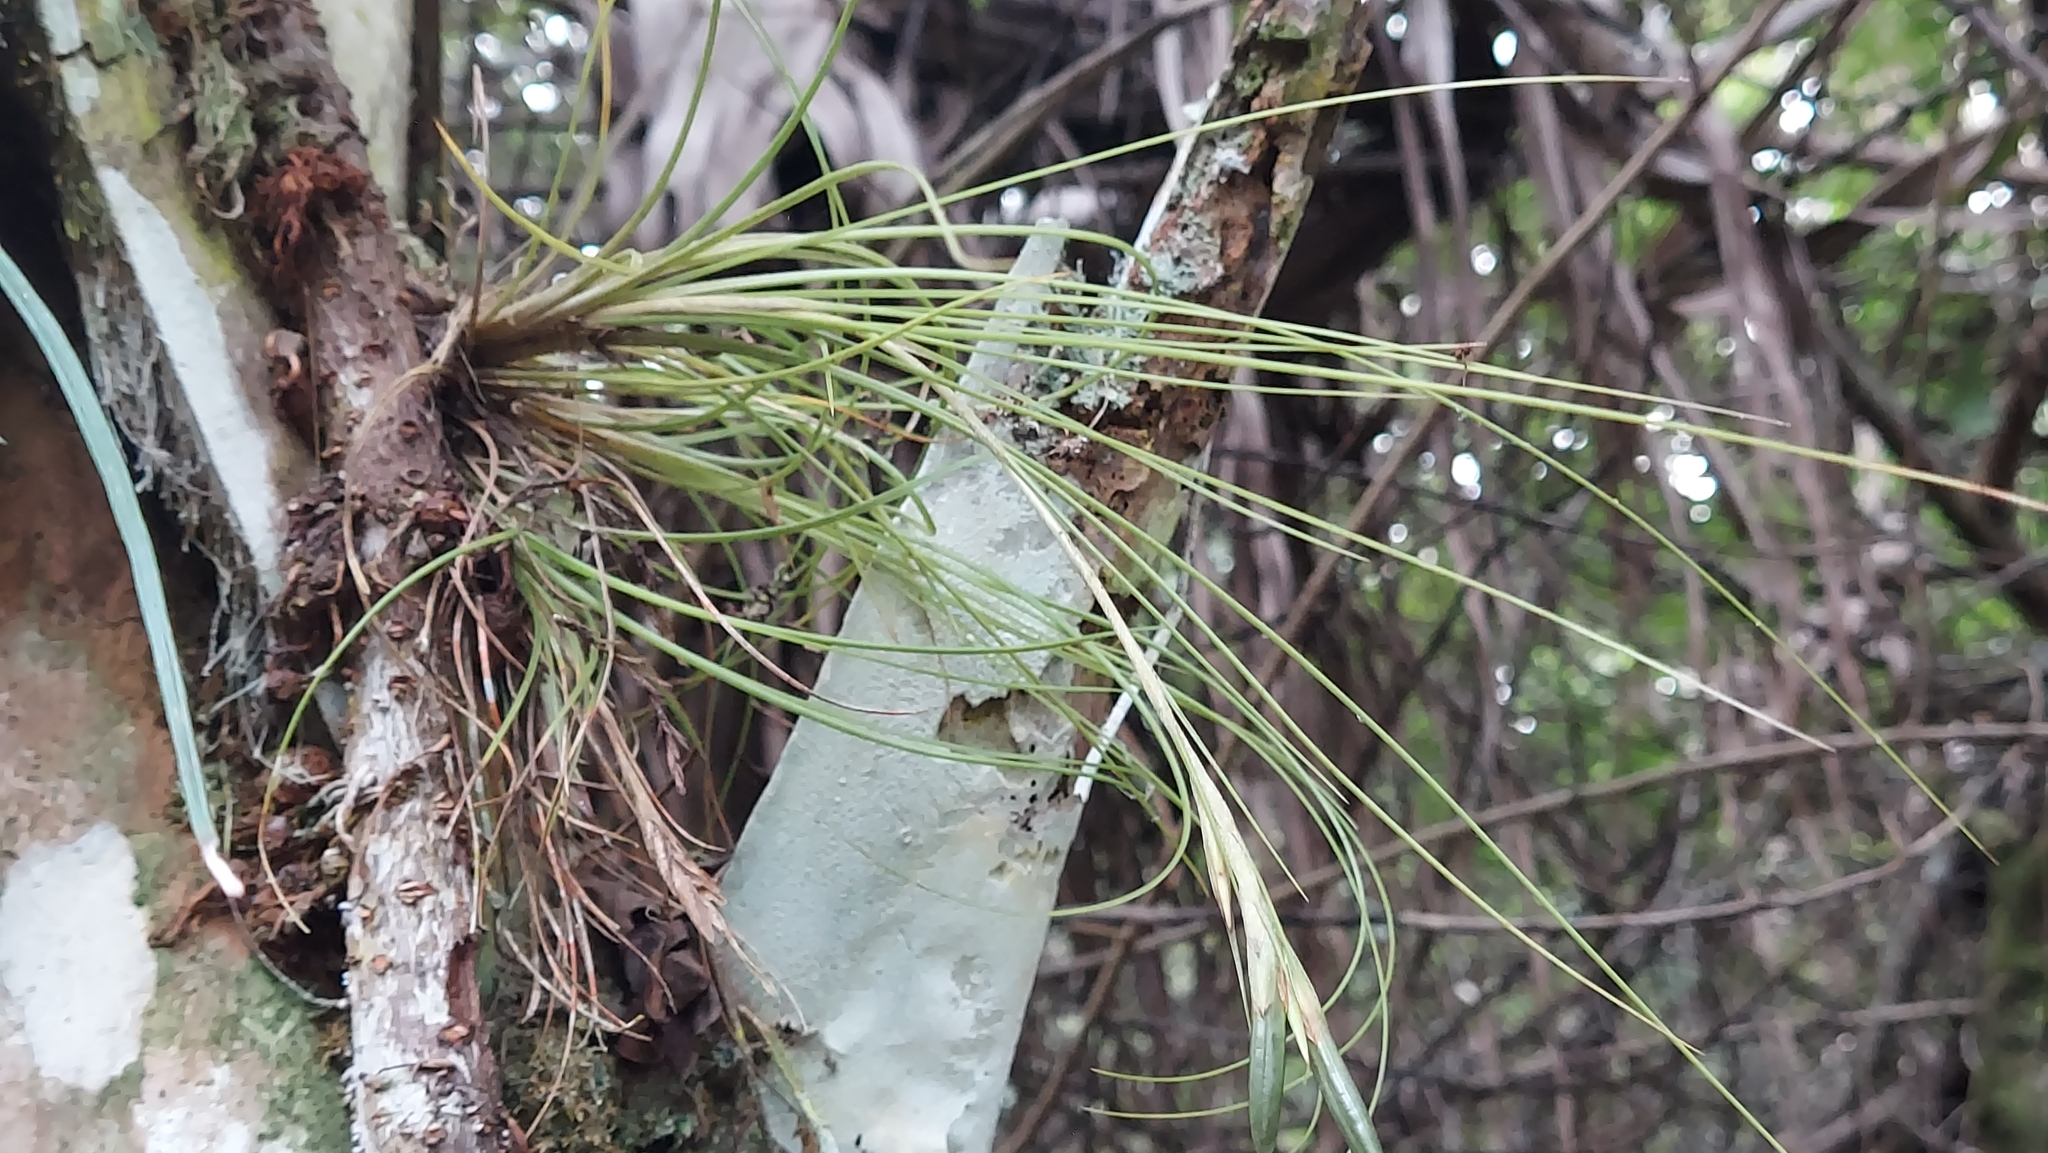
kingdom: Plantae
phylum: Tracheophyta
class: Liliopsida
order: Poales
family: Bromeliaceae
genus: Tillandsia
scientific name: Tillandsia setacea
